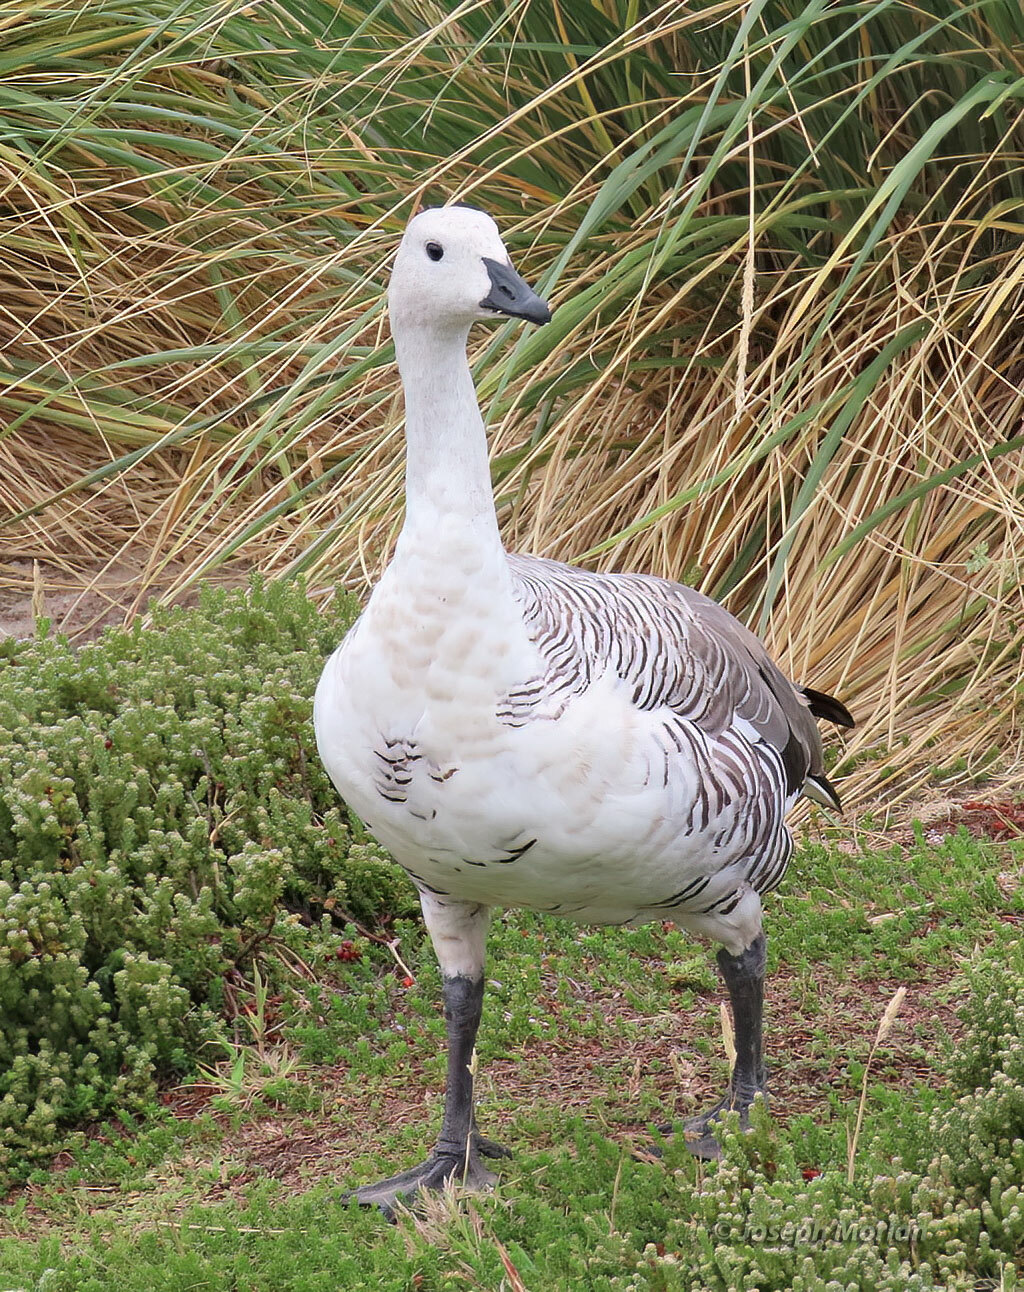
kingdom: Animalia
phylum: Chordata
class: Aves
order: Anseriformes
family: Anatidae
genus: Chloephaga
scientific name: Chloephaga picta
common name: Upland goose
